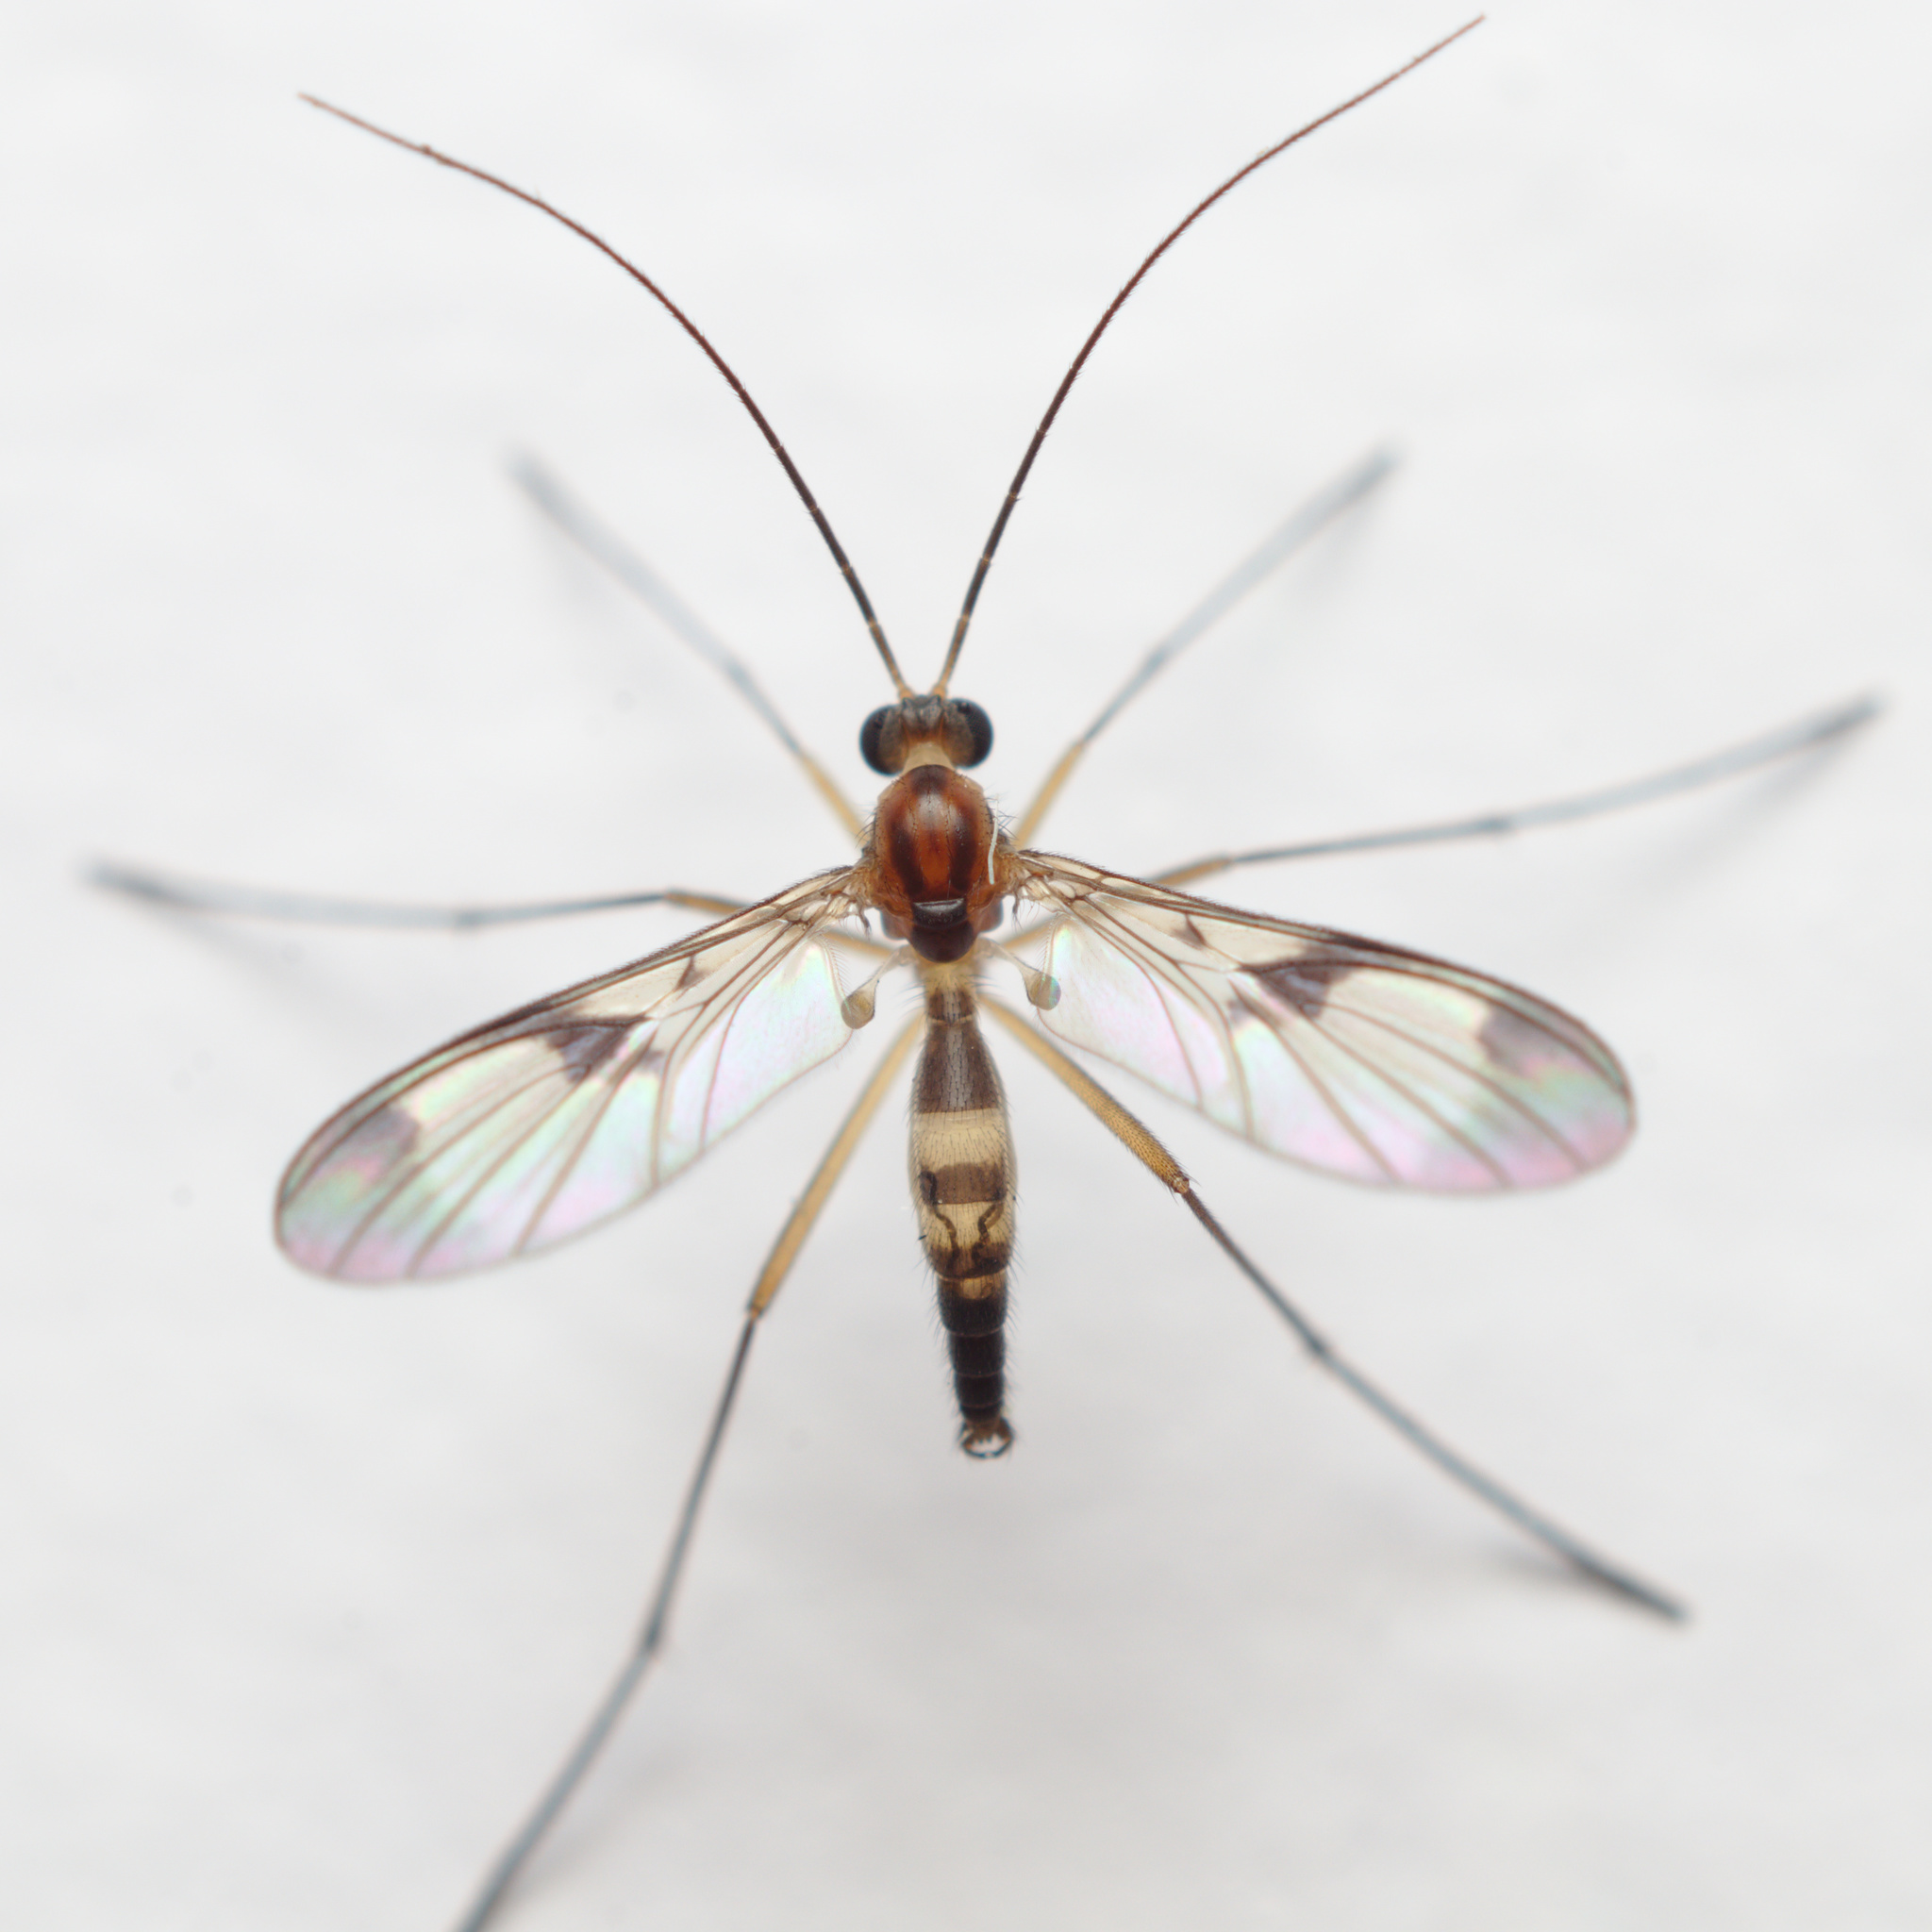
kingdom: Animalia
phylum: Arthropoda
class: Insecta
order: Diptera
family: Keroplatidae
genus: Macrocera
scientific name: Macrocera scoparia
